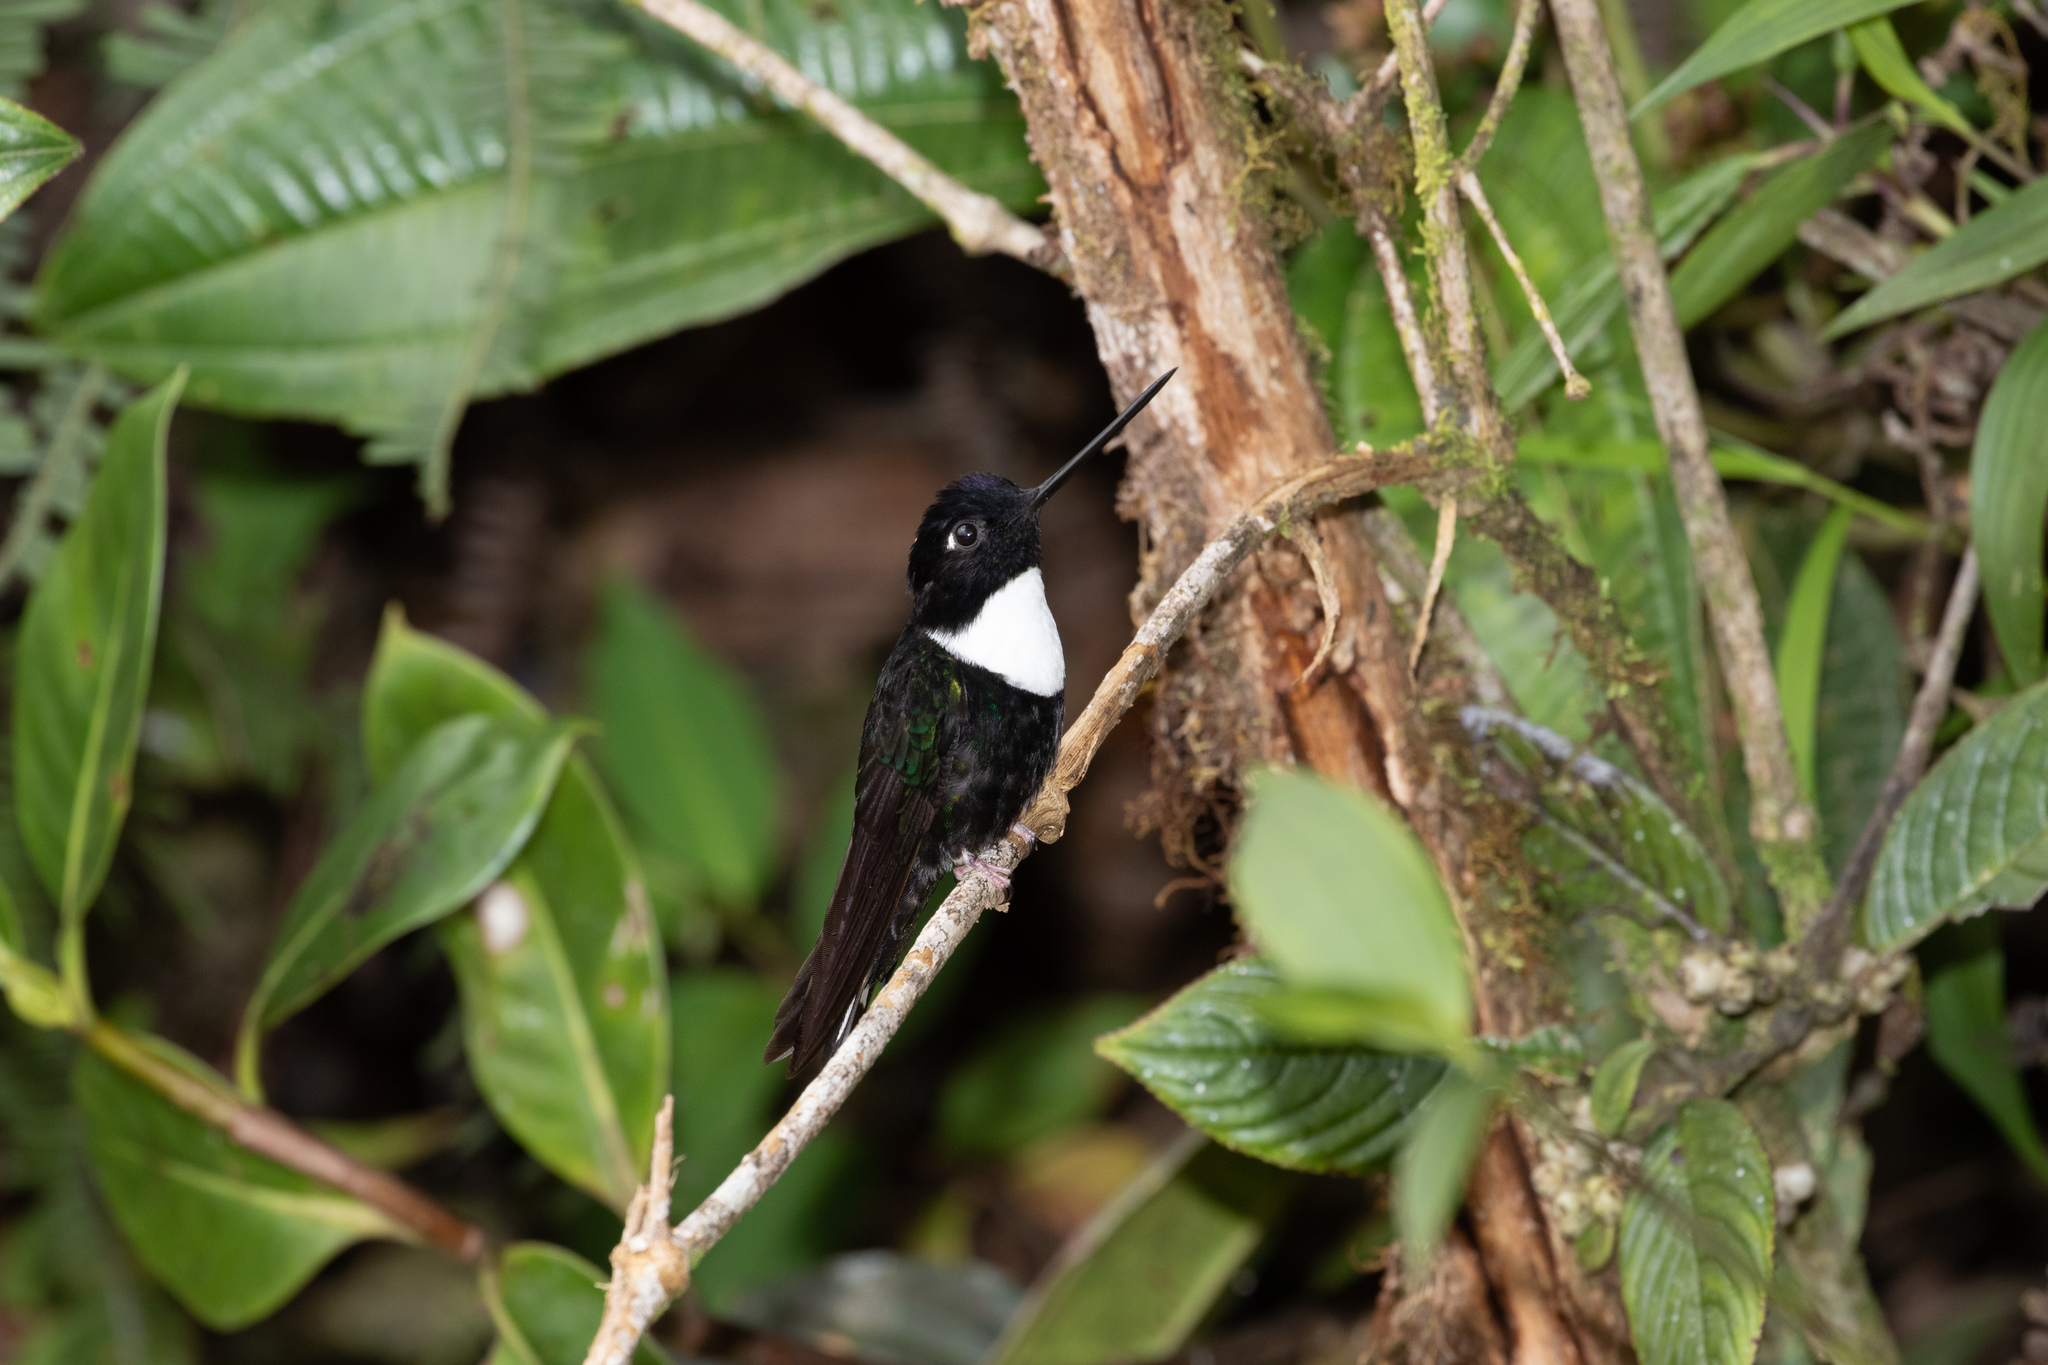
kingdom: Animalia
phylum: Chordata
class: Aves
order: Apodiformes
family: Trochilidae
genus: Coeligena
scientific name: Coeligena torquata
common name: Collared inca
